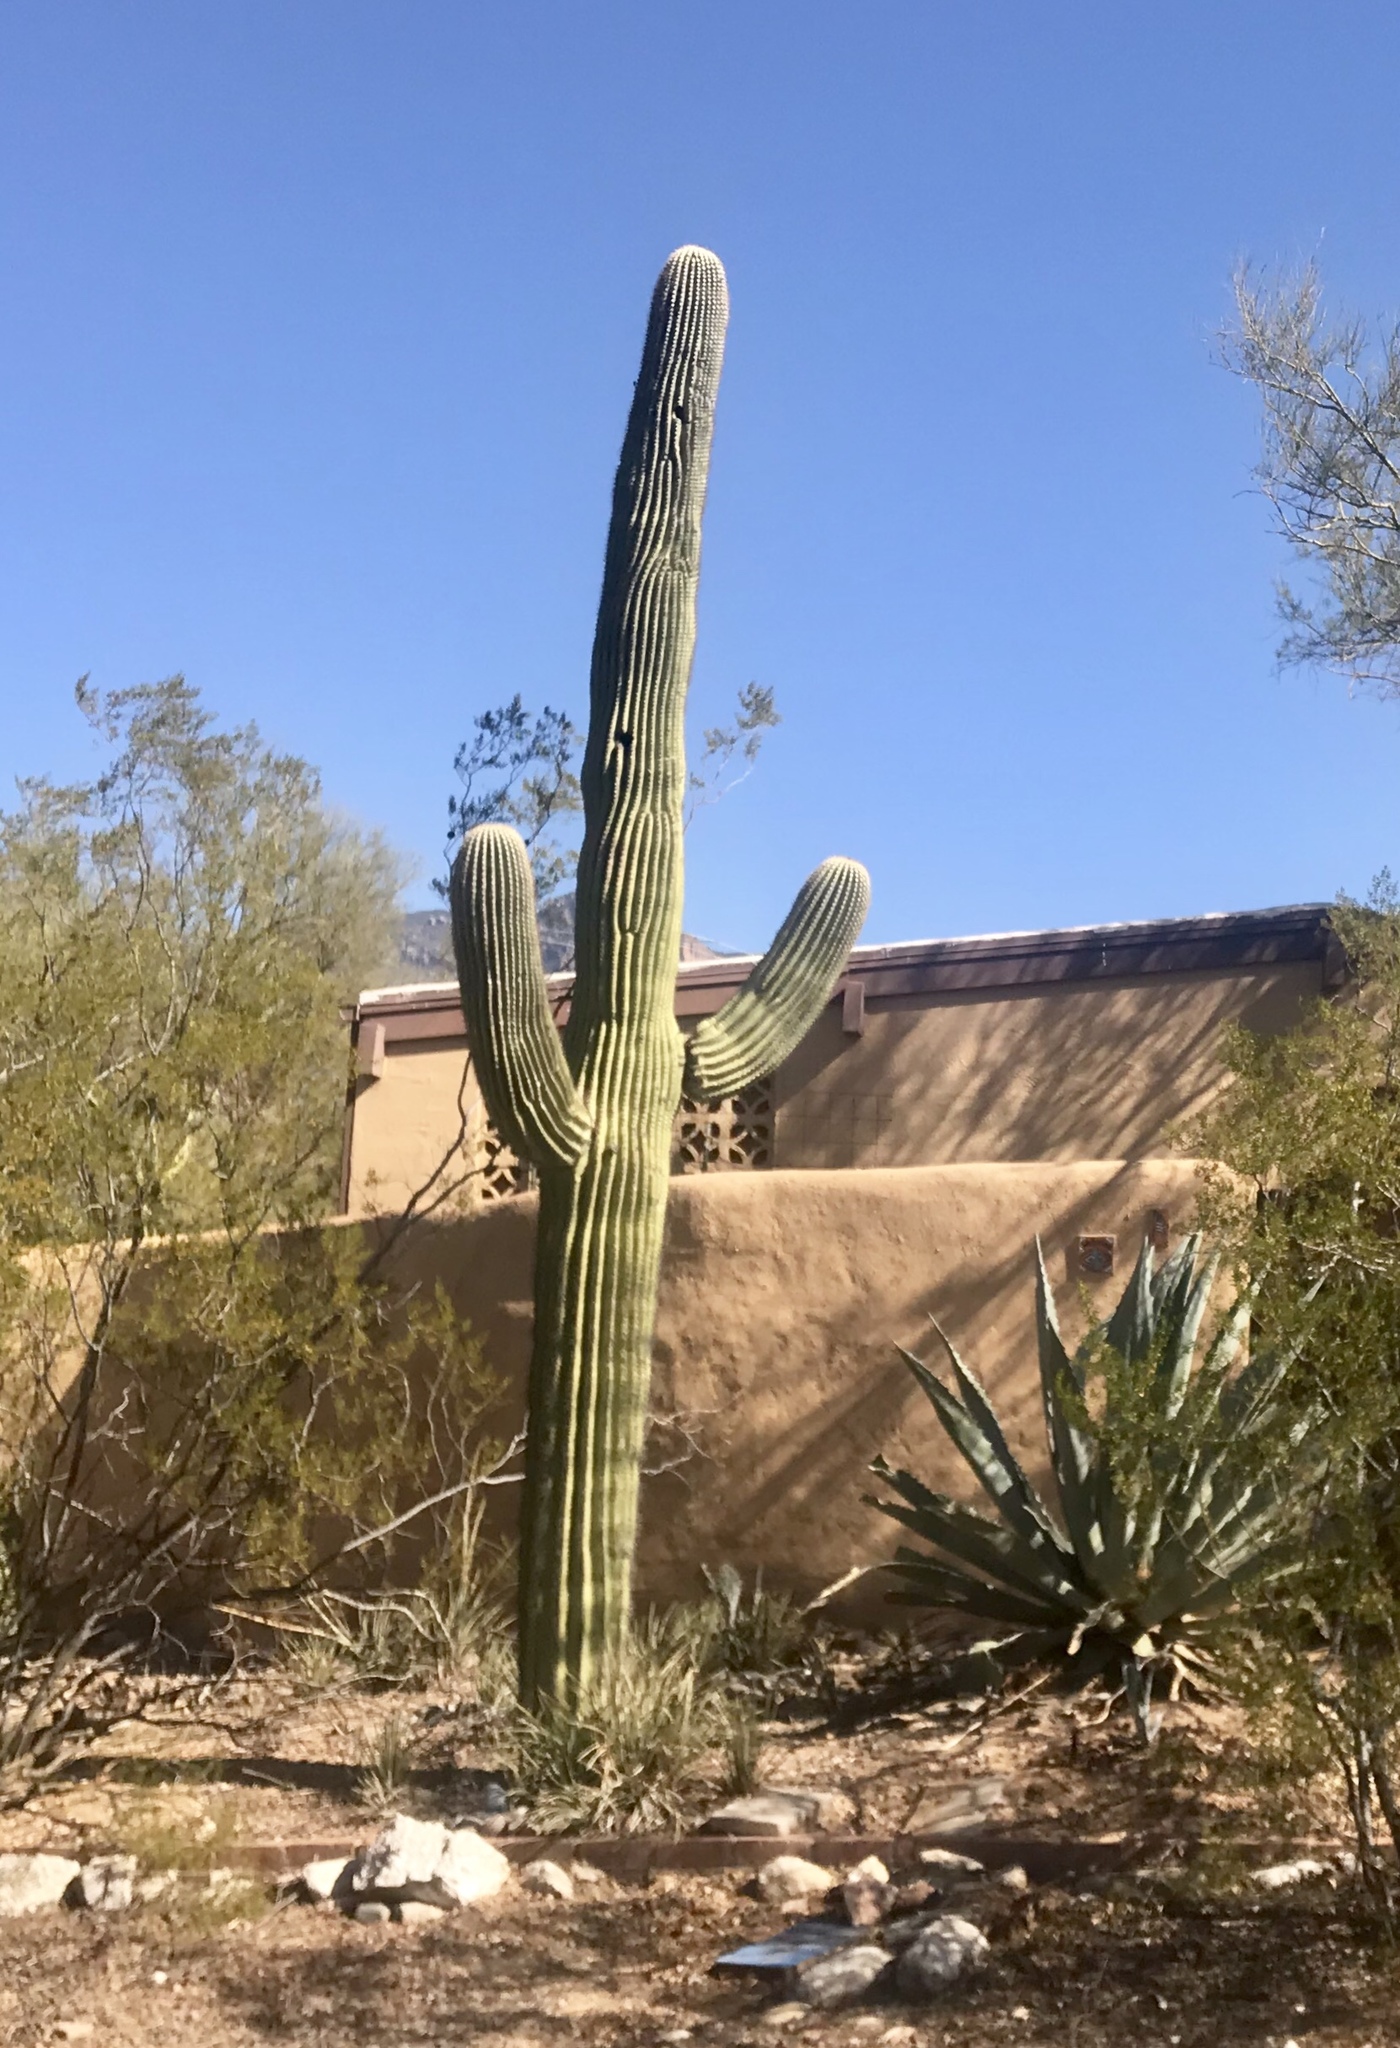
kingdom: Plantae
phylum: Tracheophyta
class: Magnoliopsida
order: Caryophyllales
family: Cactaceae
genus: Carnegiea
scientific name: Carnegiea gigantea
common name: Saguaro
